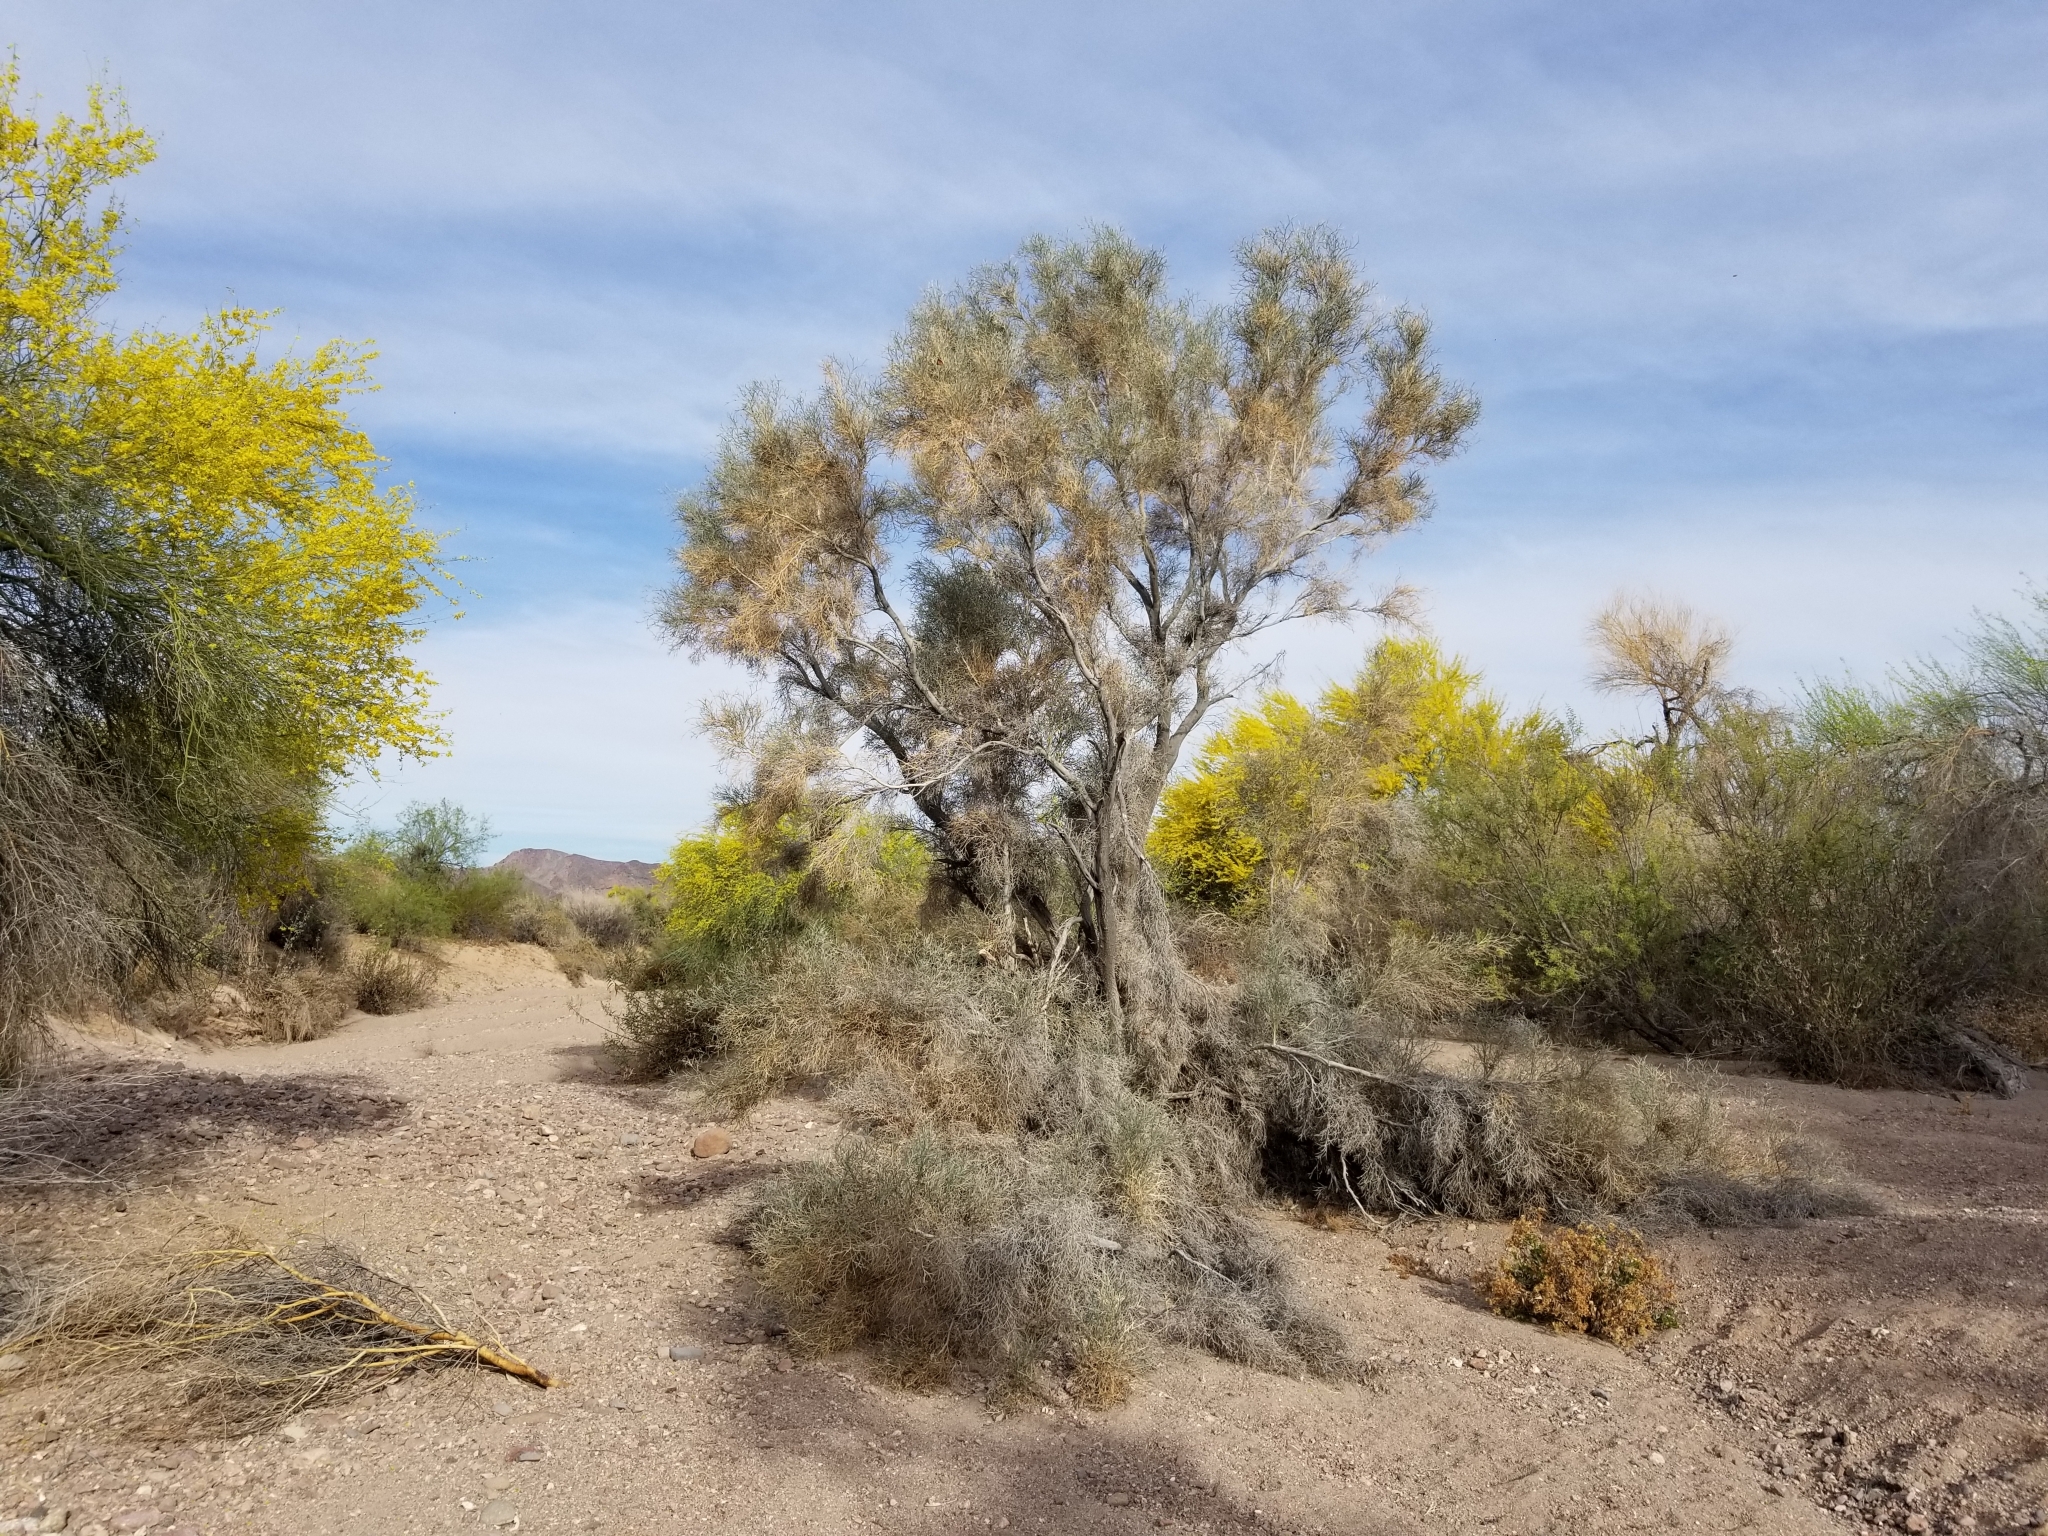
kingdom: Plantae
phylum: Tracheophyta
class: Magnoliopsida
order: Fabales
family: Fabaceae
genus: Psorothamnus
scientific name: Psorothamnus spinosus
